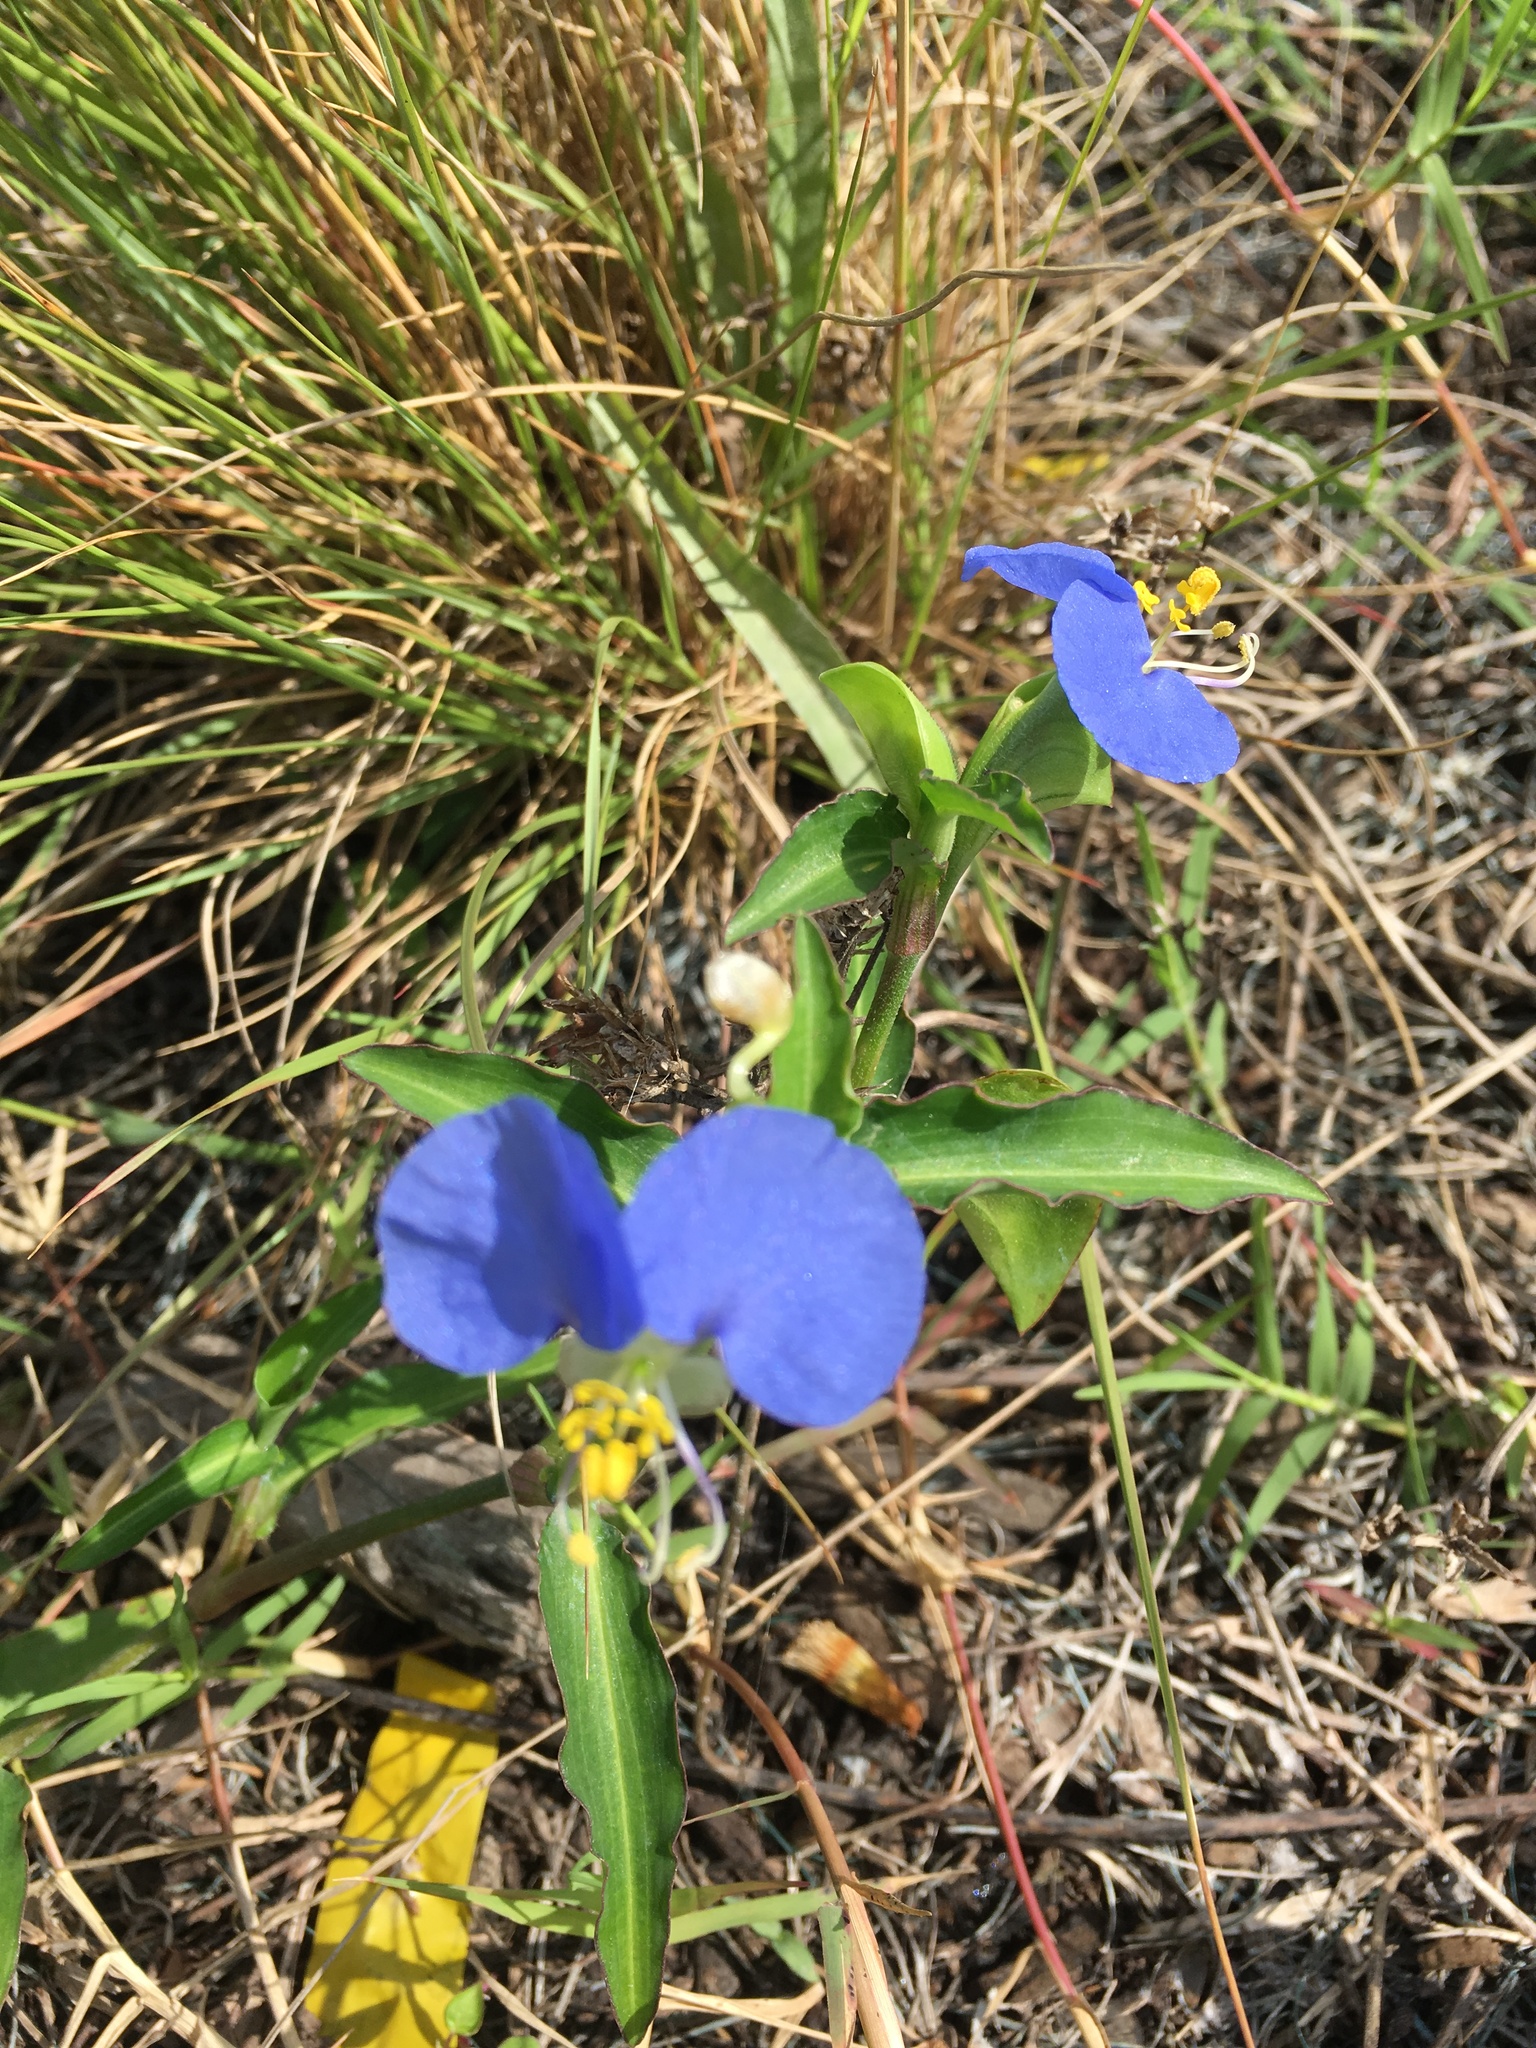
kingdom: Plantae
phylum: Tracheophyta
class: Liliopsida
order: Commelinales
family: Commelinaceae
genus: Commelina
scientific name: Commelina erecta
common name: Blousel blommetjie
